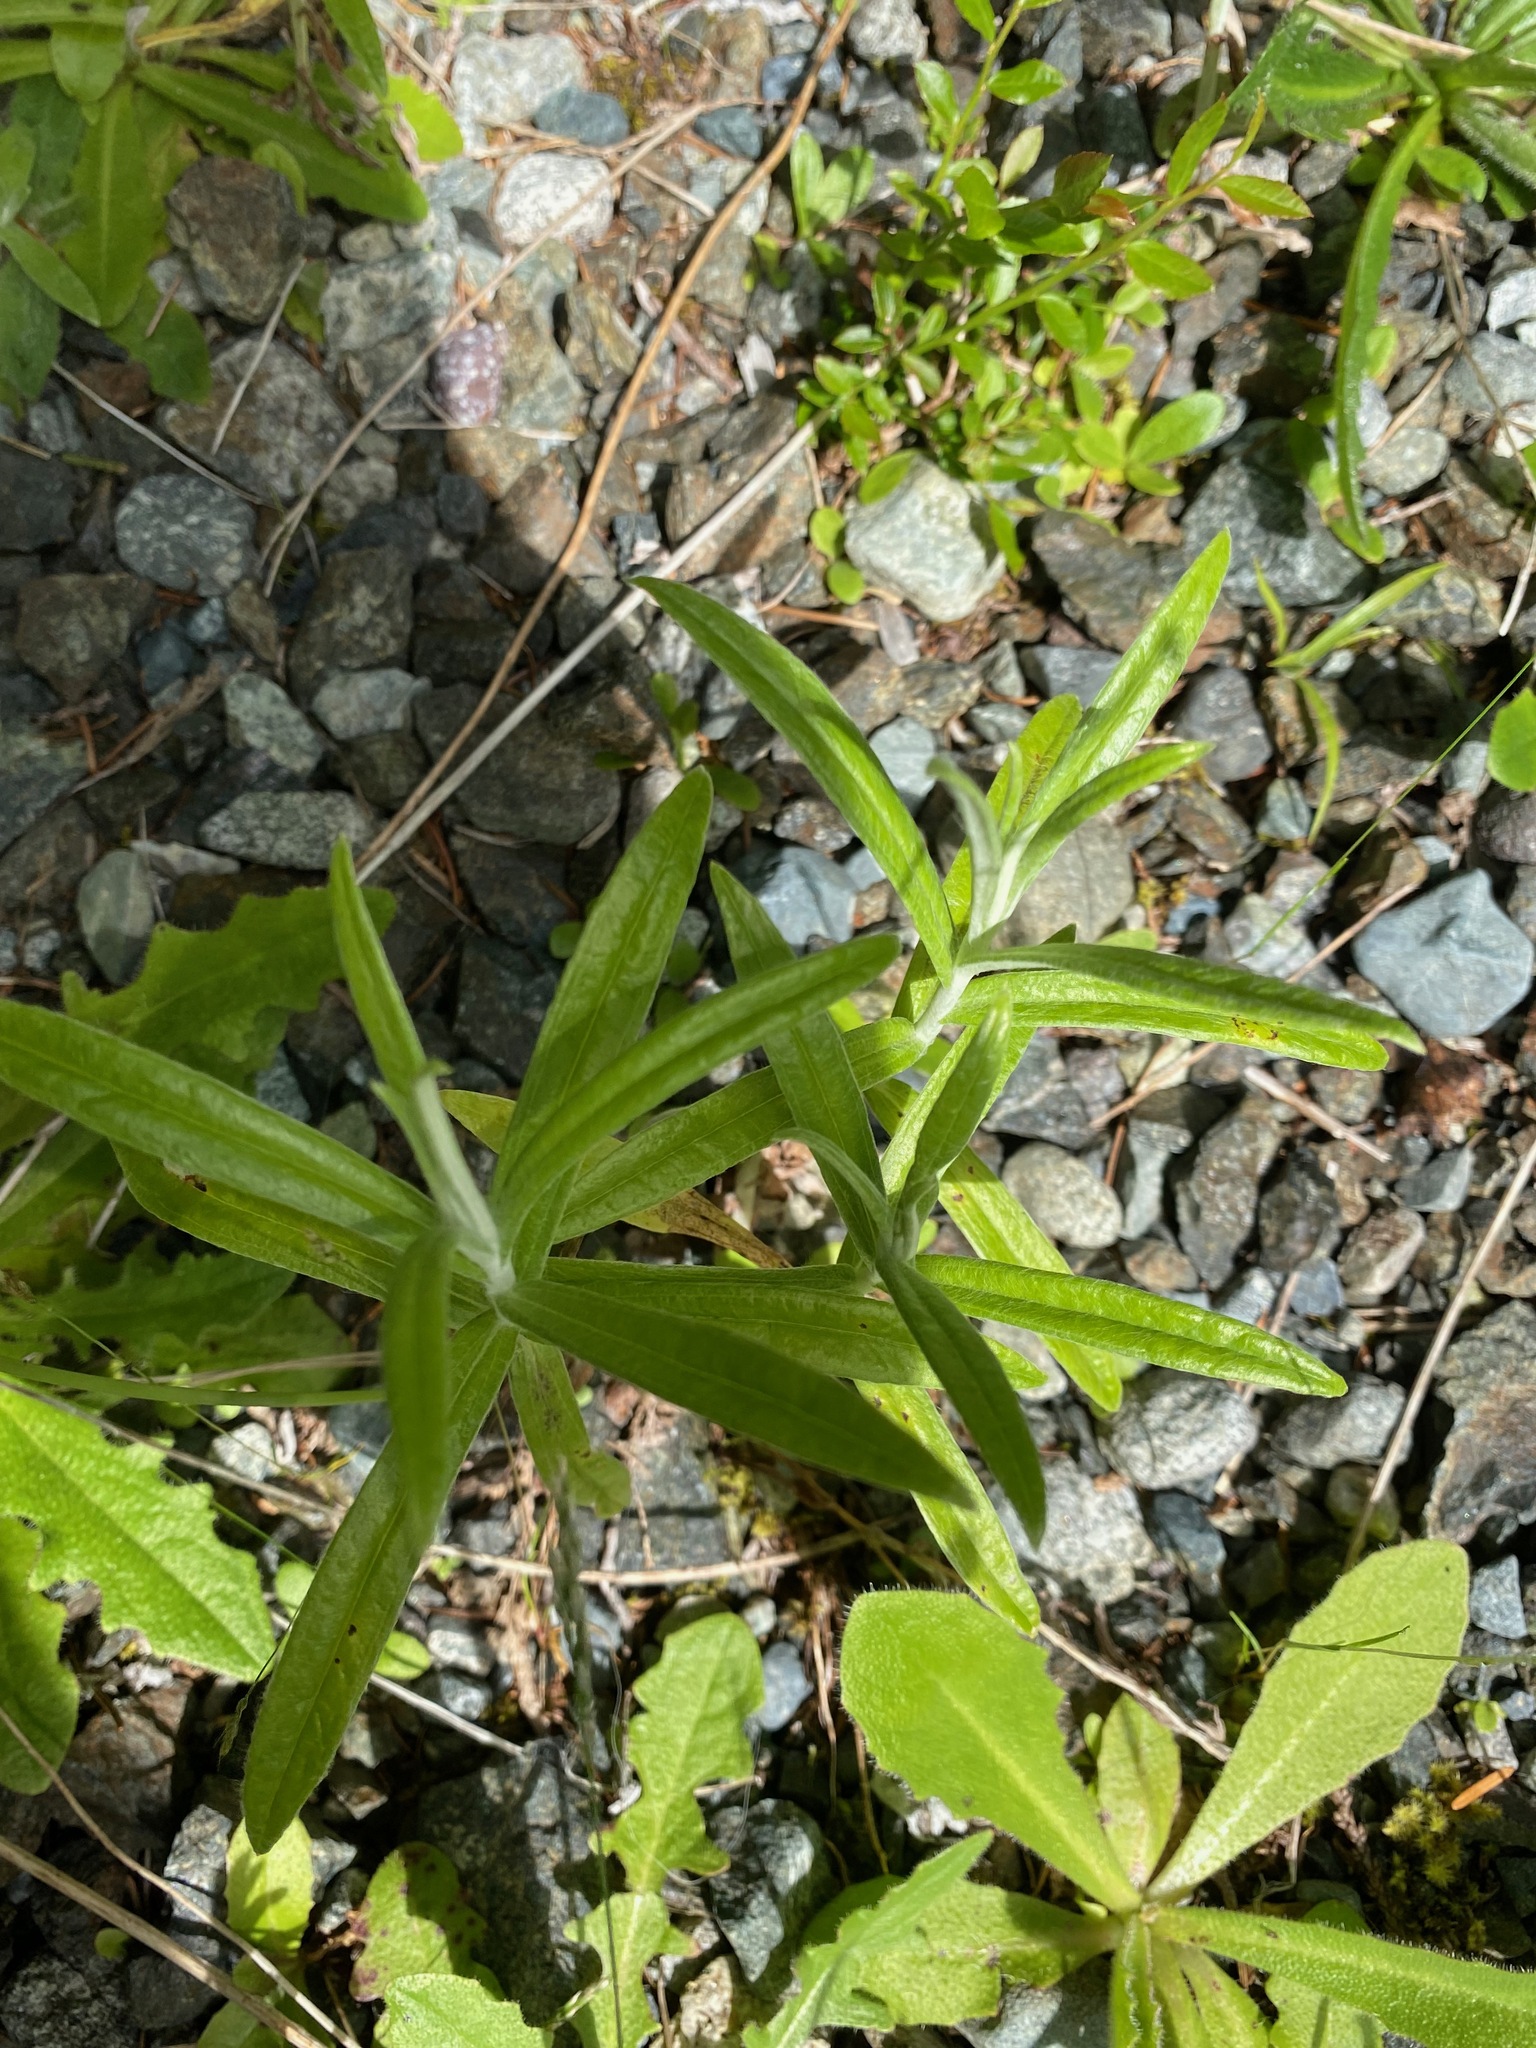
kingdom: Plantae
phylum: Tracheophyta
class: Magnoliopsida
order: Asterales
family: Asteraceae
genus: Anaphalis
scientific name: Anaphalis margaritacea
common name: Pearly everlasting
